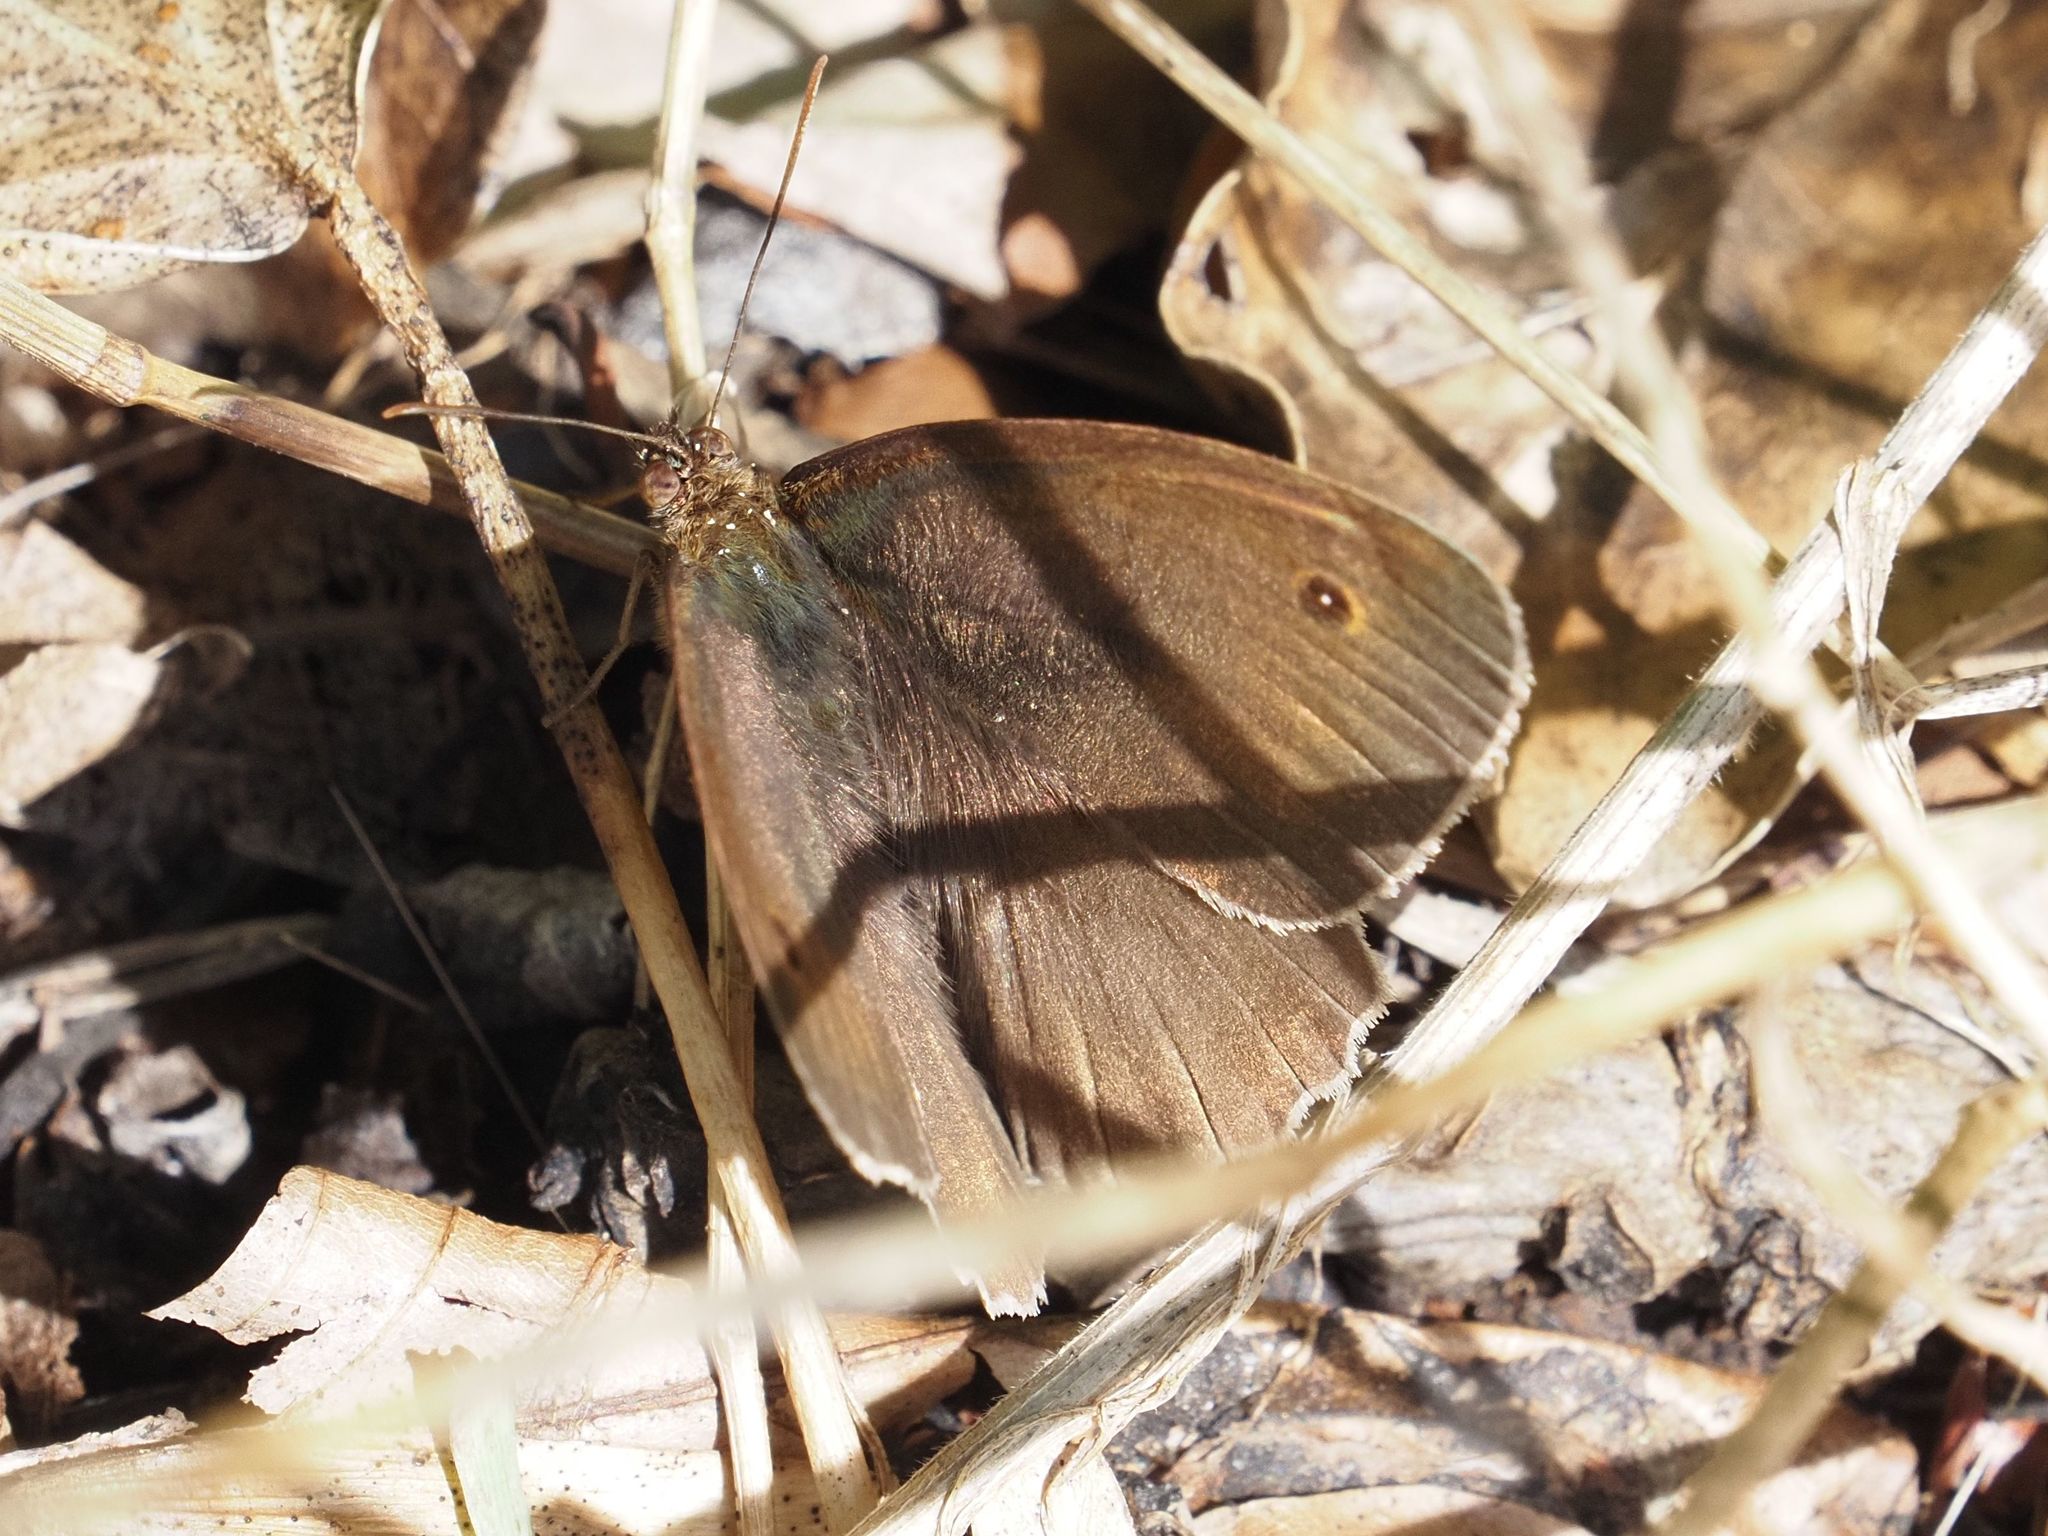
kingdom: Animalia
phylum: Arthropoda
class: Insecta
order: Lepidoptera
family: Nymphalidae
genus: Maniola
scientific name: Maniola jurtina
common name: Meadow brown
